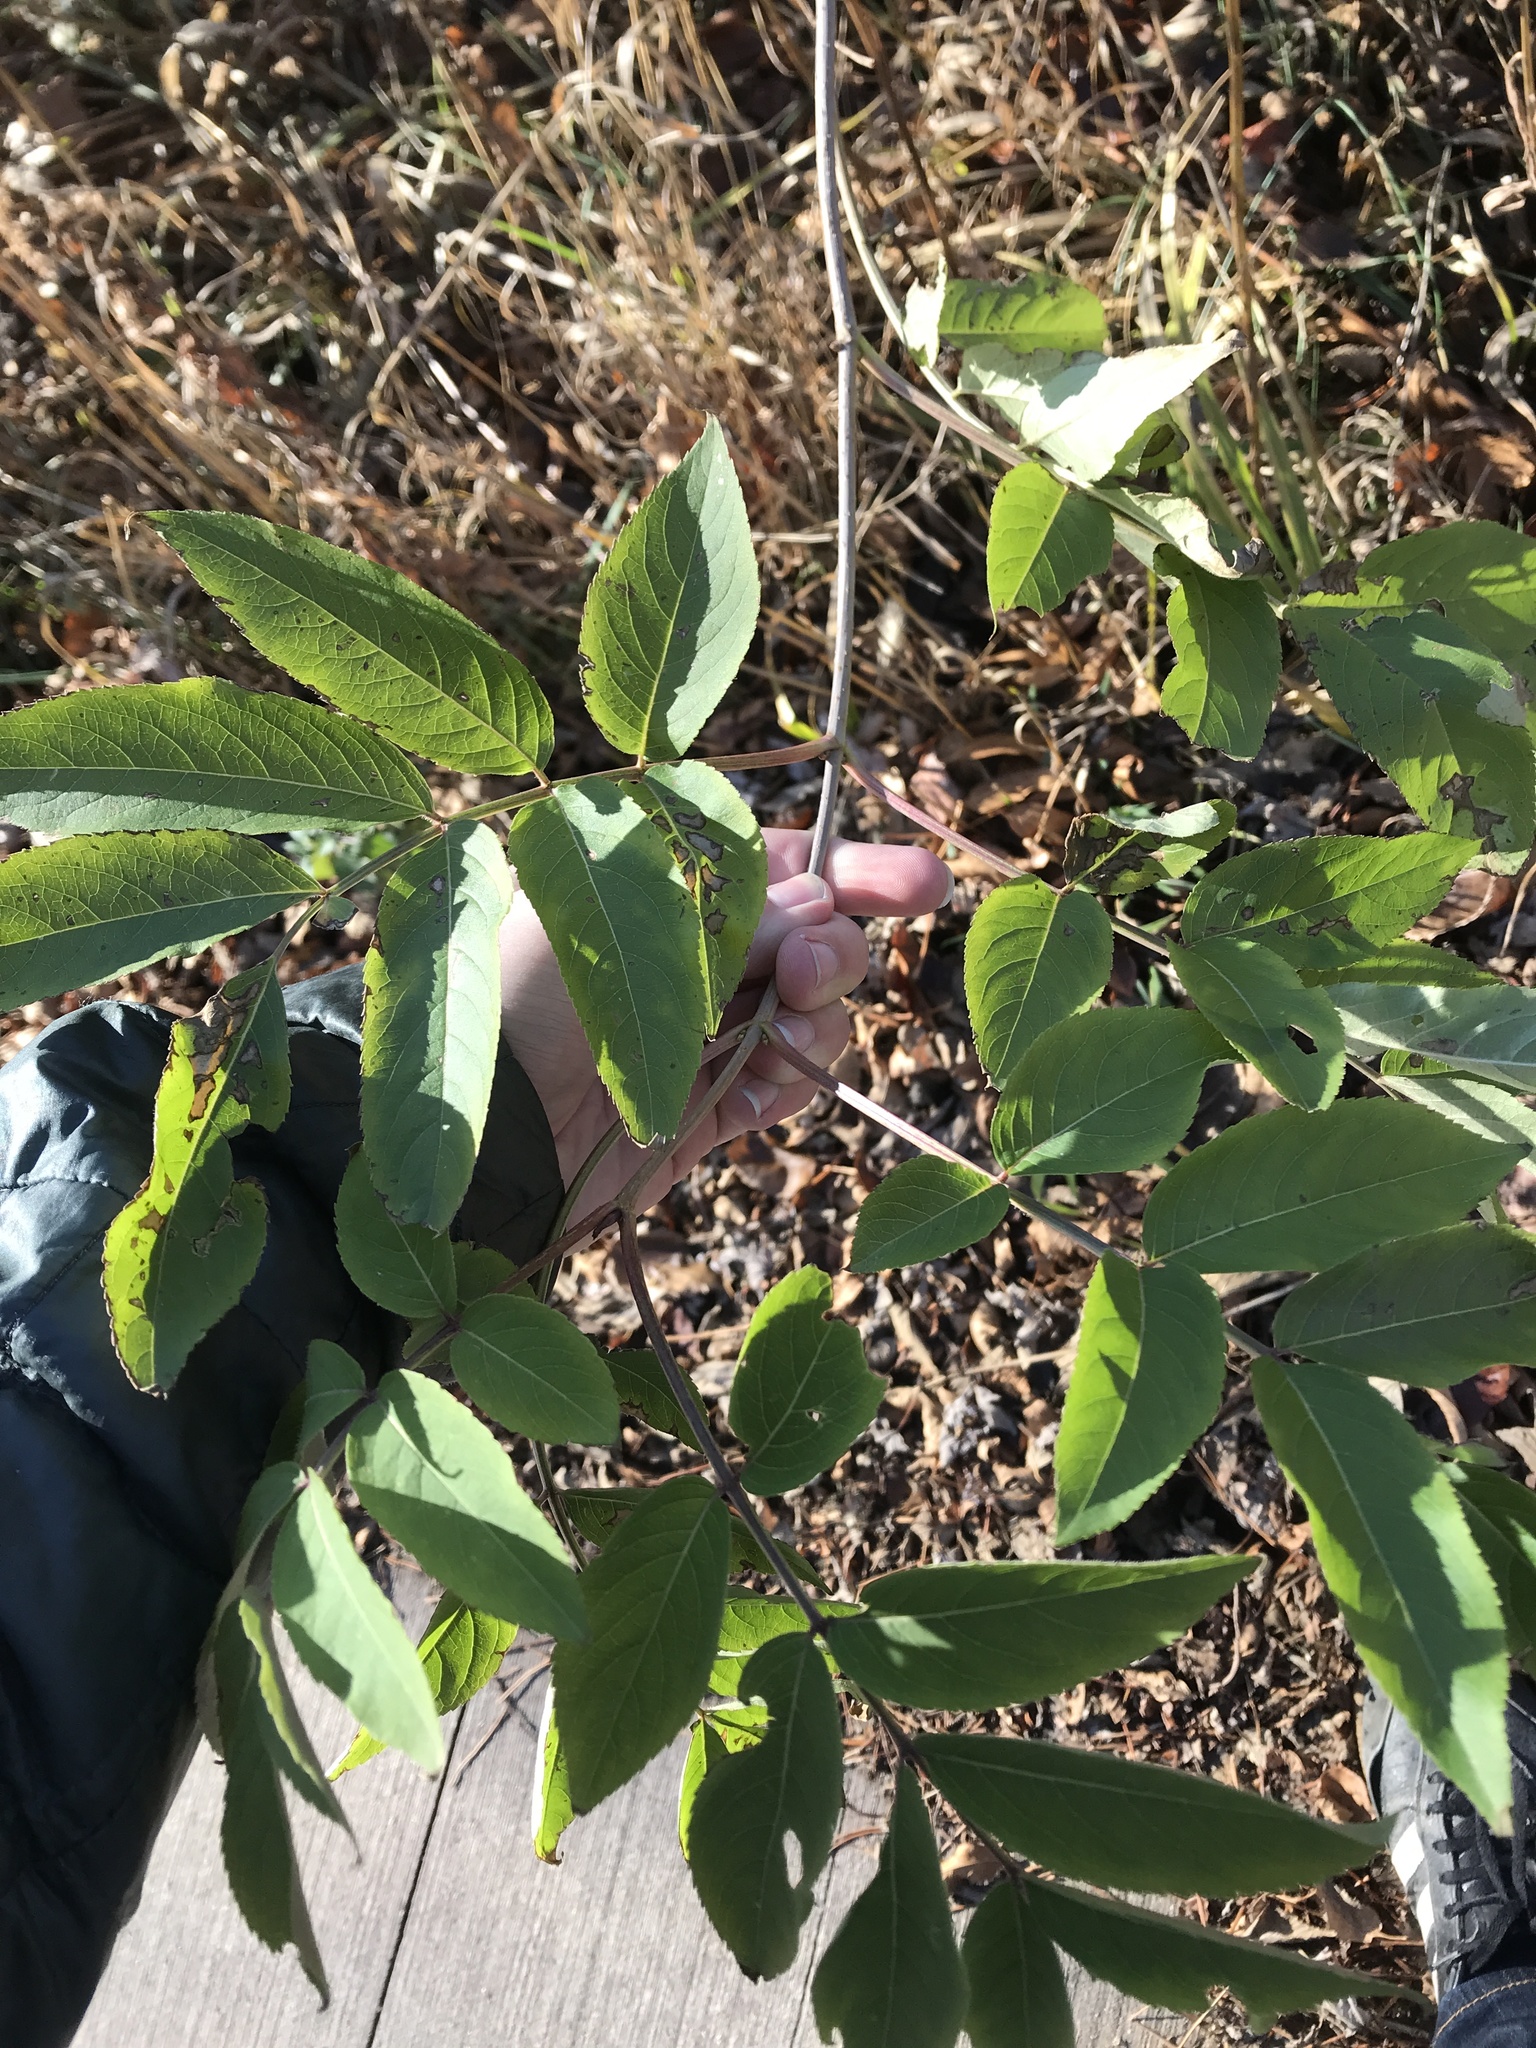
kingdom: Plantae
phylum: Tracheophyta
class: Magnoliopsida
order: Dipsacales
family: Viburnaceae
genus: Sambucus
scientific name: Sambucus canadensis
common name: American elder
